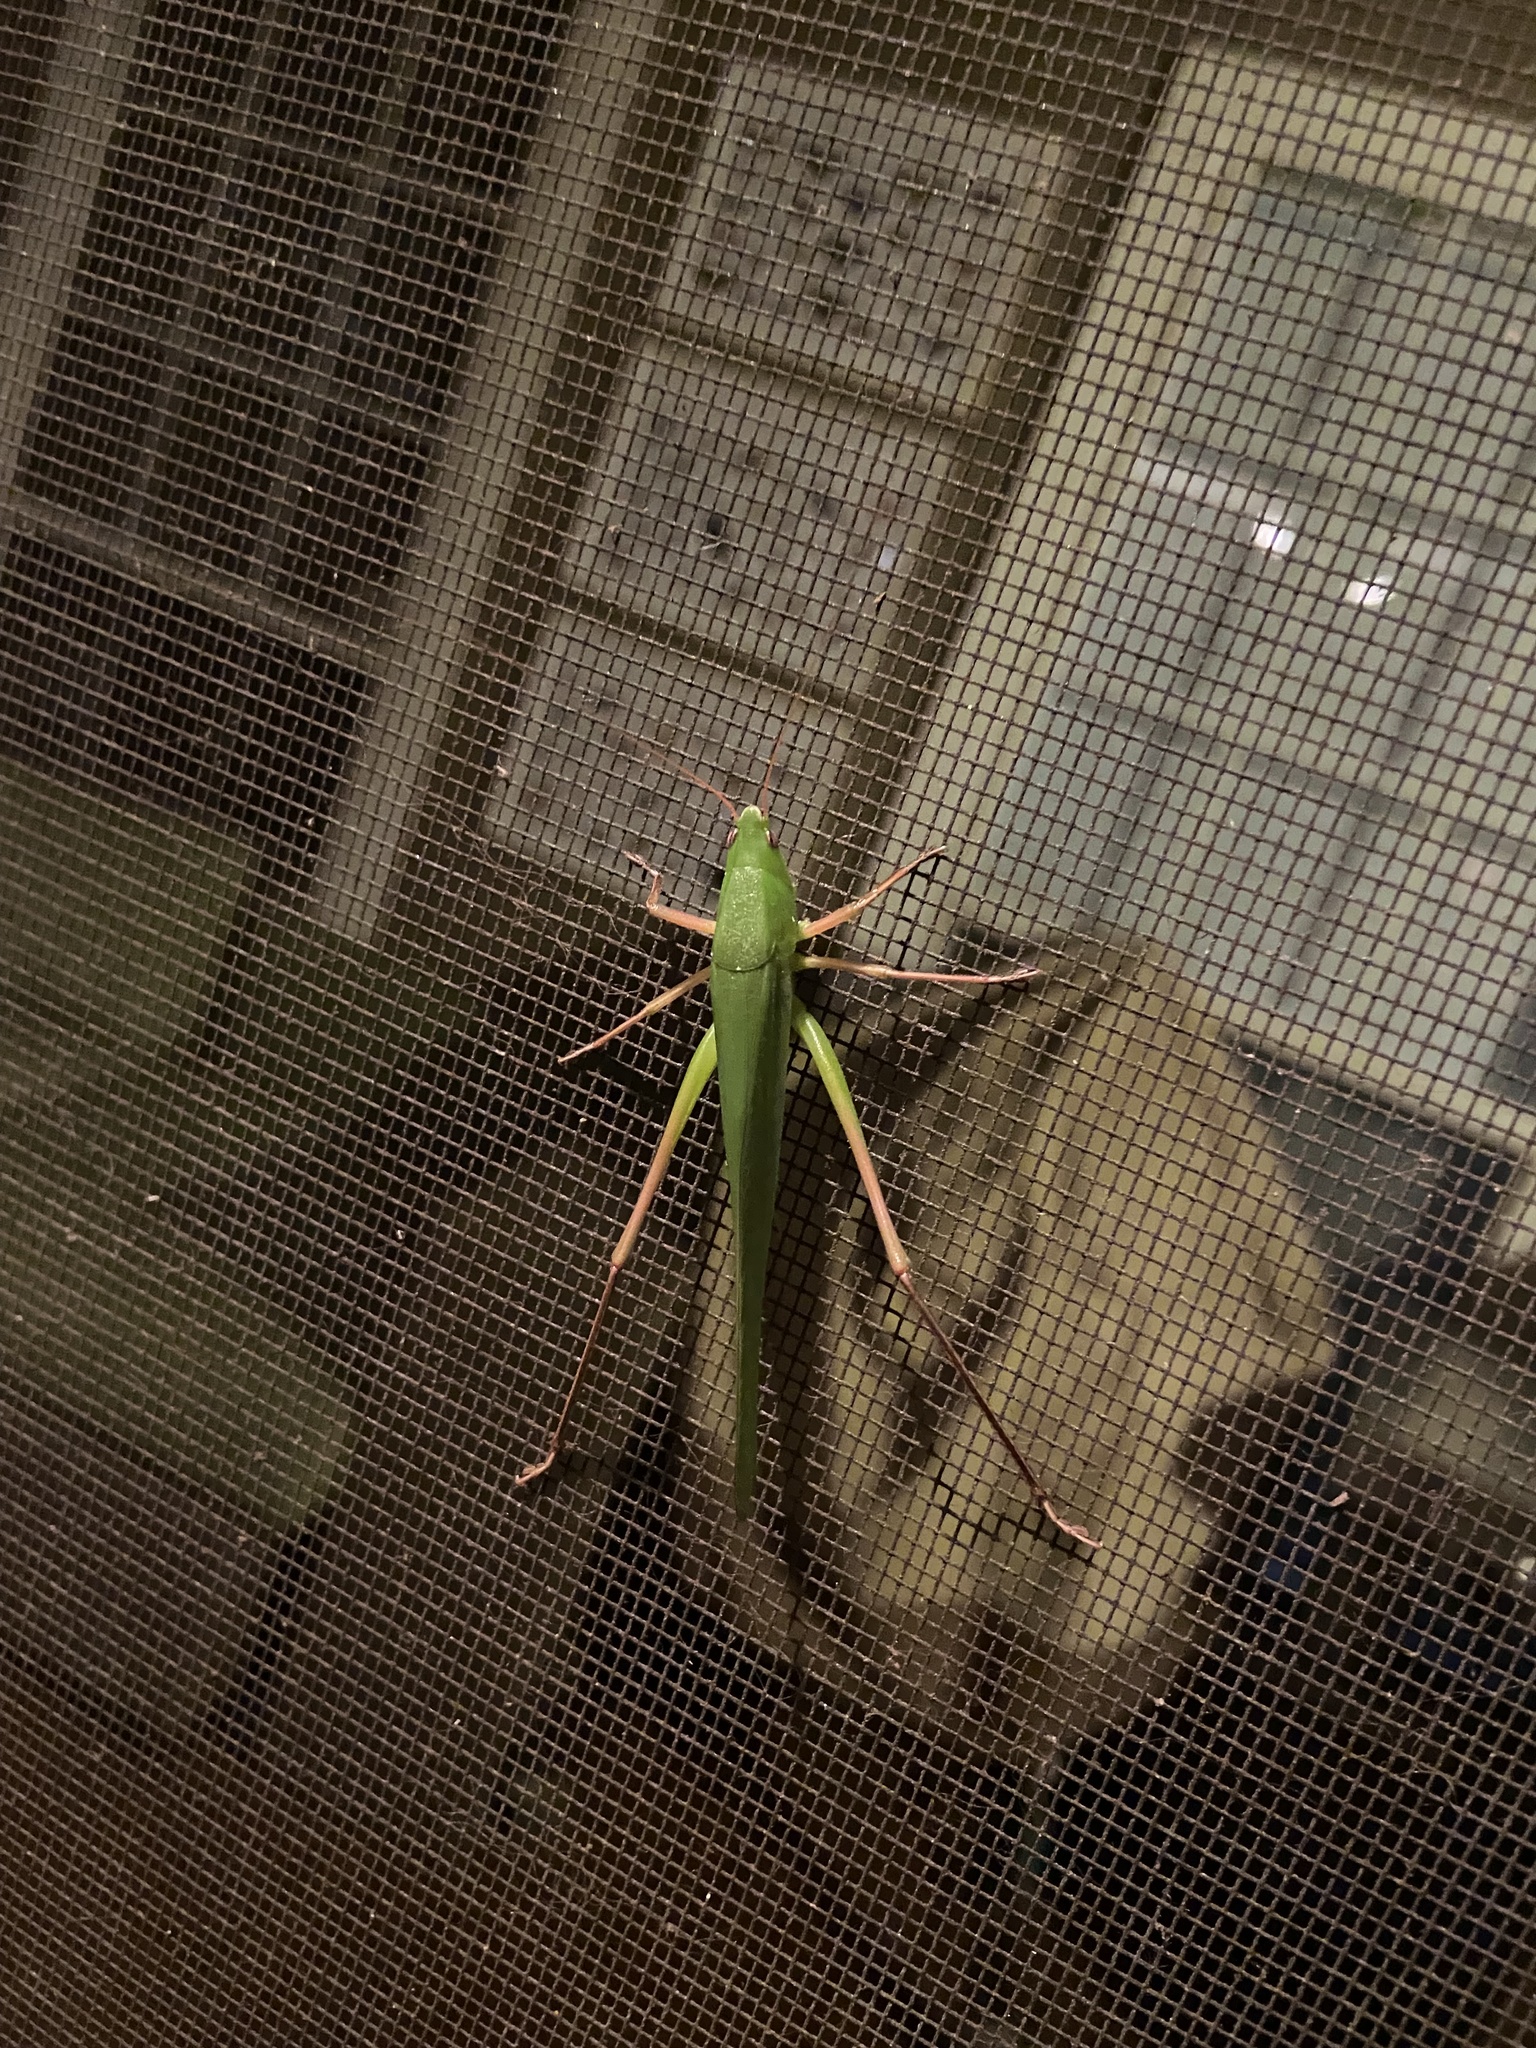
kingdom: Animalia
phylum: Arthropoda
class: Insecta
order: Orthoptera
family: Tettigoniidae
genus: Neoconocephalus
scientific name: Neoconocephalus triops
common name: Broad-tipped conehead
